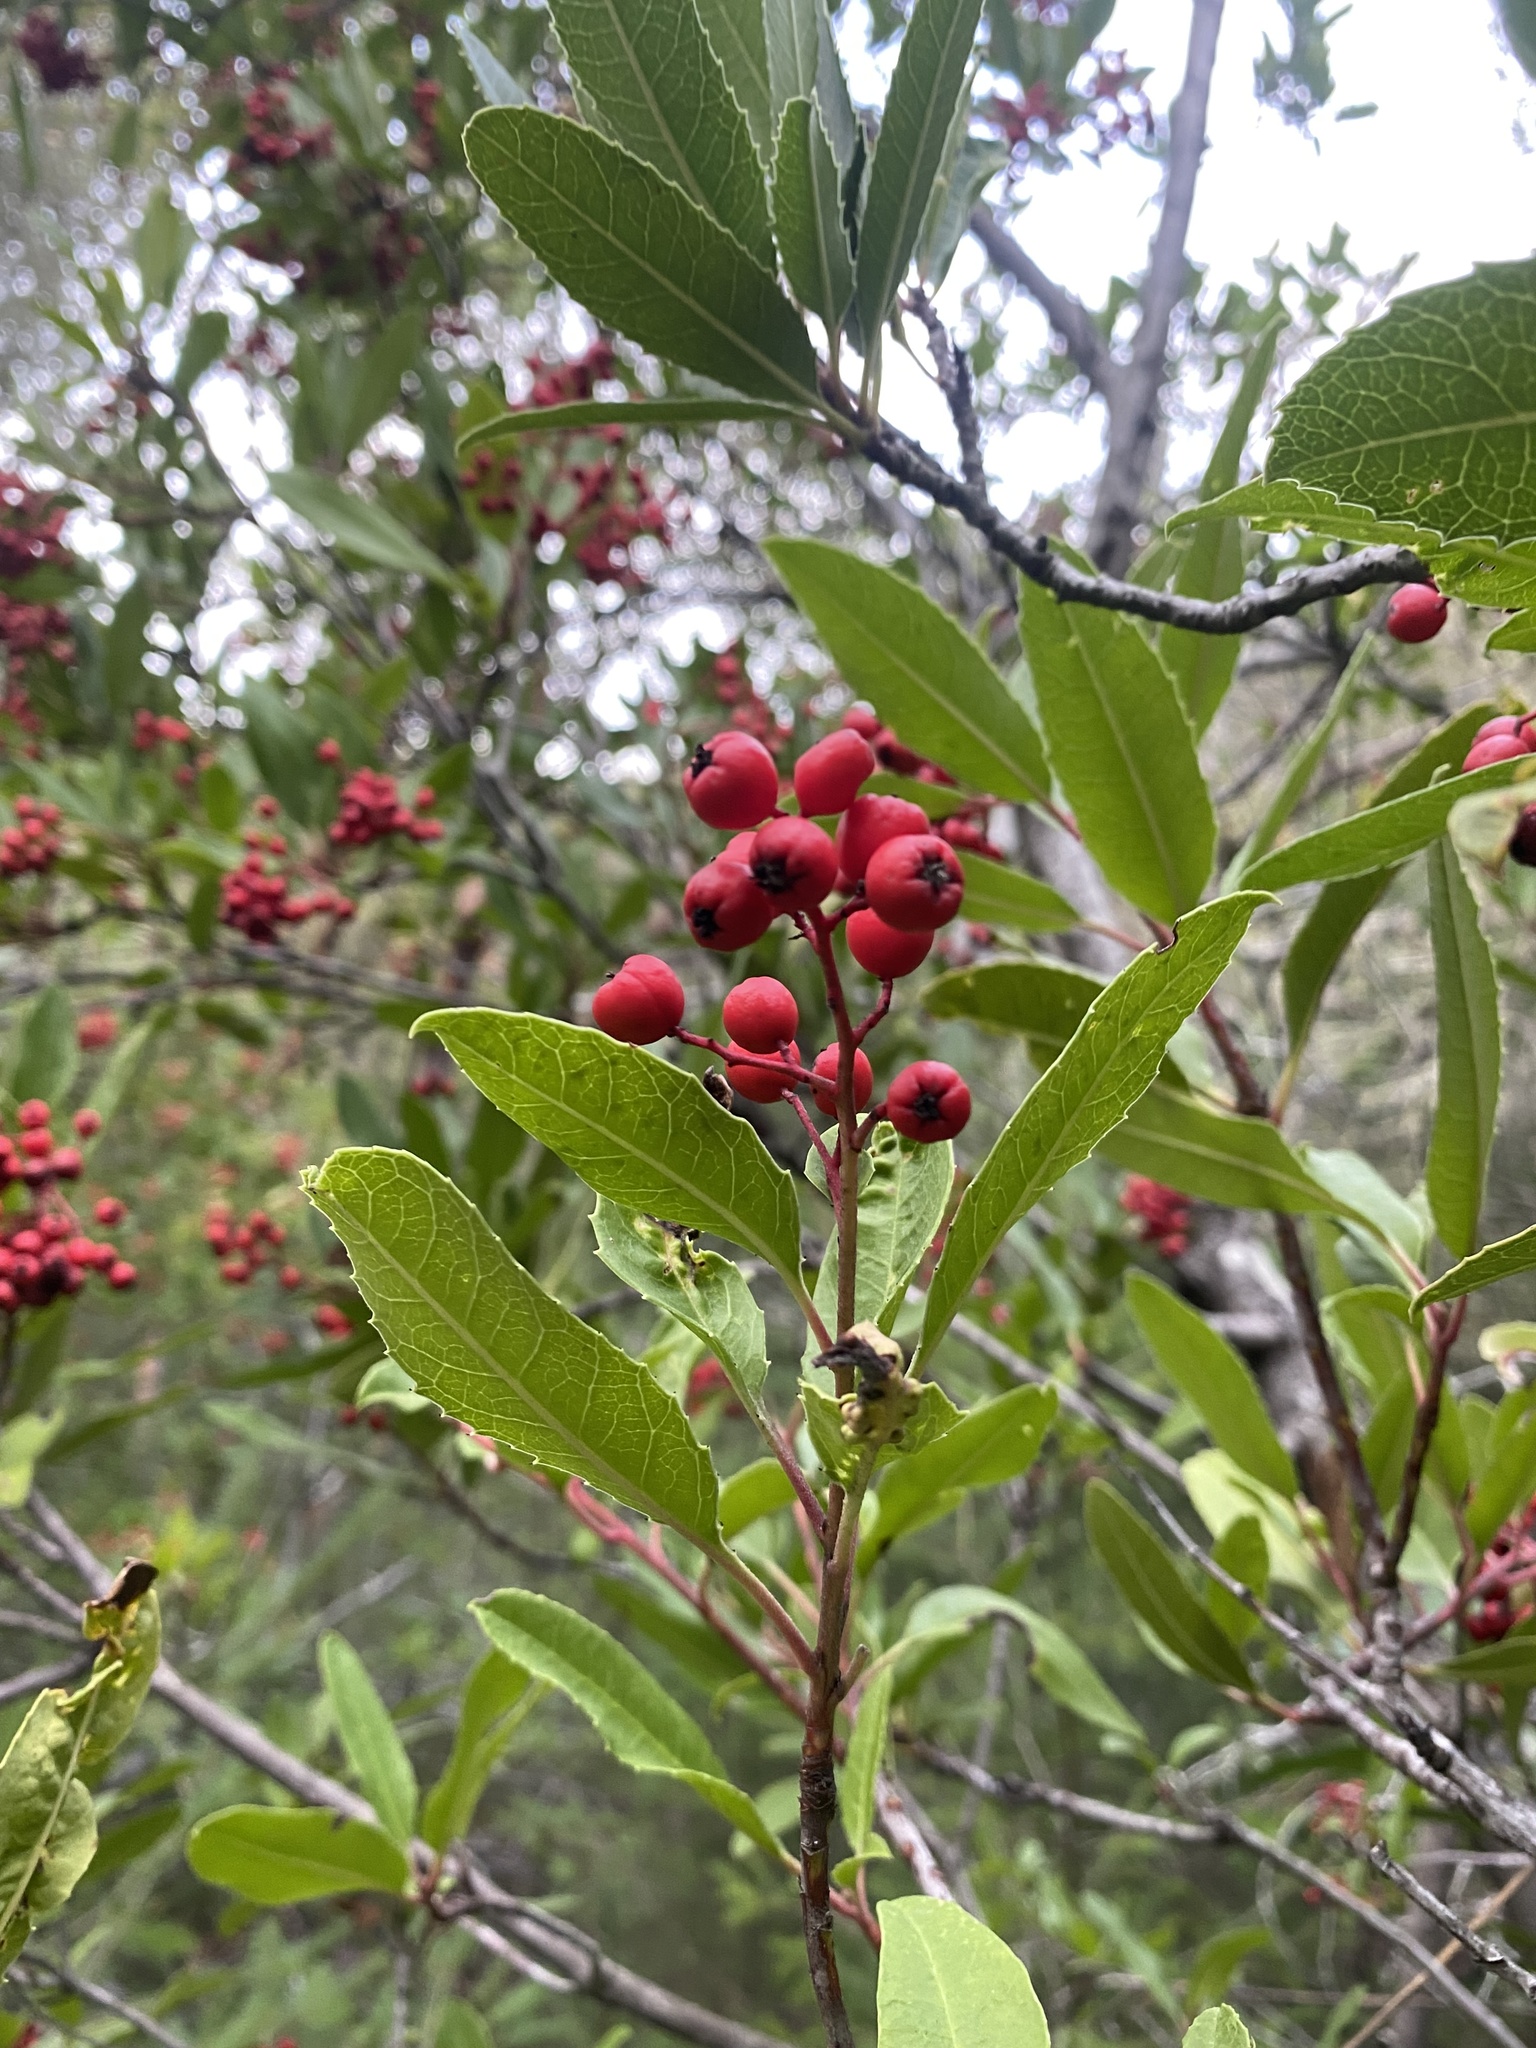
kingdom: Plantae
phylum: Tracheophyta
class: Magnoliopsida
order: Rosales
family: Rosaceae
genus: Heteromeles
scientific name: Heteromeles arbutifolia
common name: California-holly
